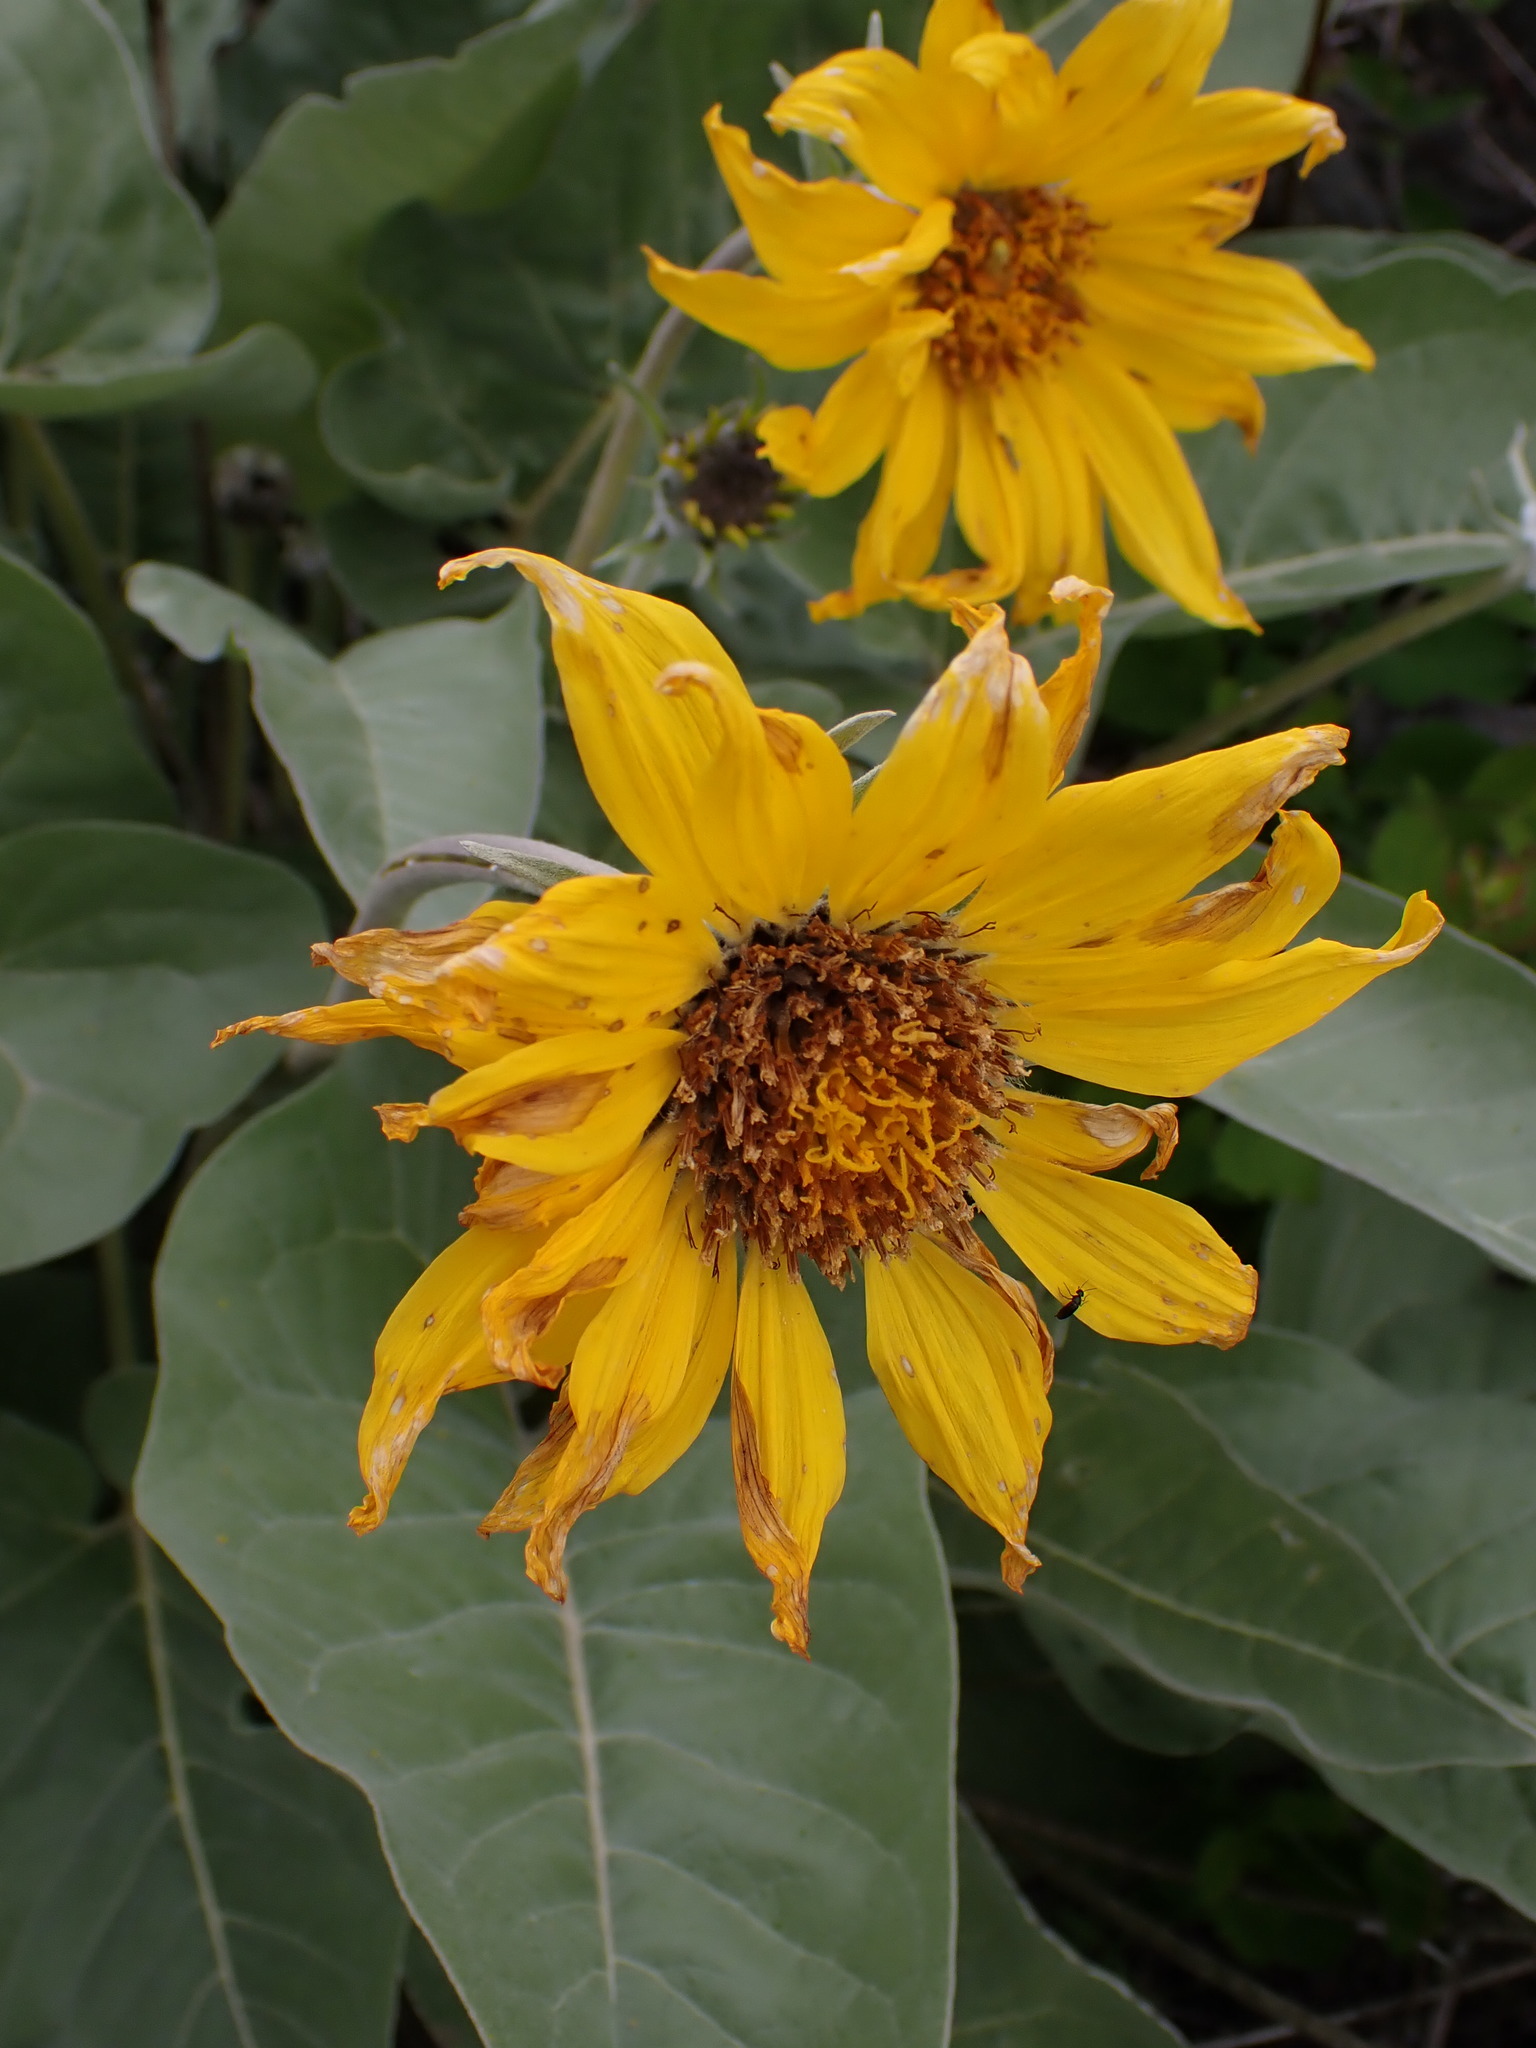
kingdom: Plantae
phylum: Tracheophyta
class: Magnoliopsida
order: Asterales
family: Asteraceae
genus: Wyethia
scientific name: Wyethia sagittata
